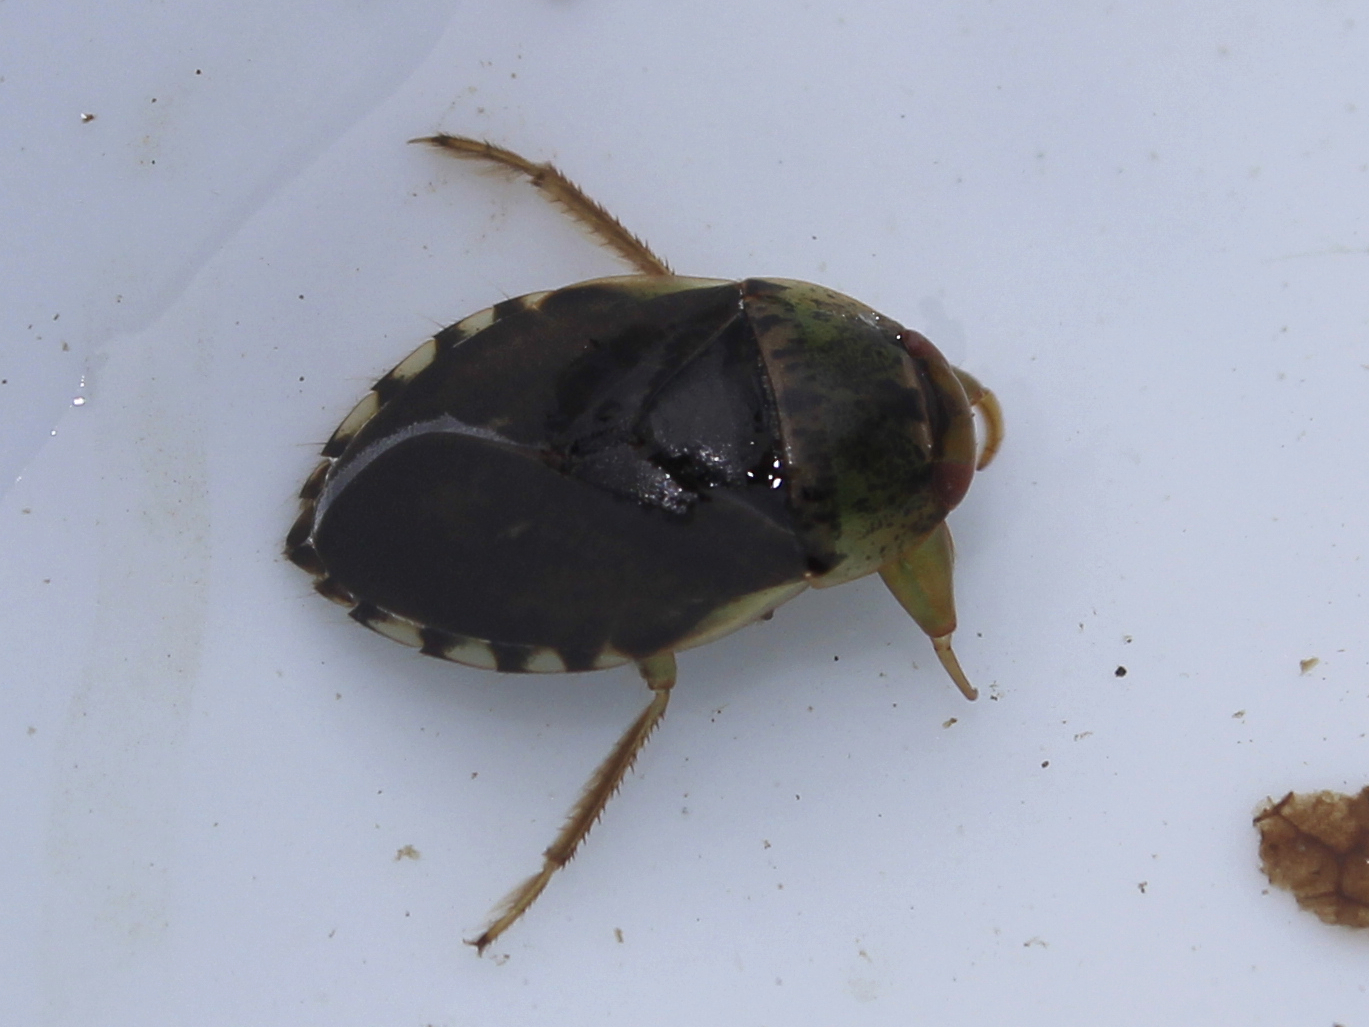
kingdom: Animalia
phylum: Arthropoda
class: Insecta
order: Hemiptera
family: Naucoridae
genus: Pelocoris
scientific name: Pelocoris femoratus
